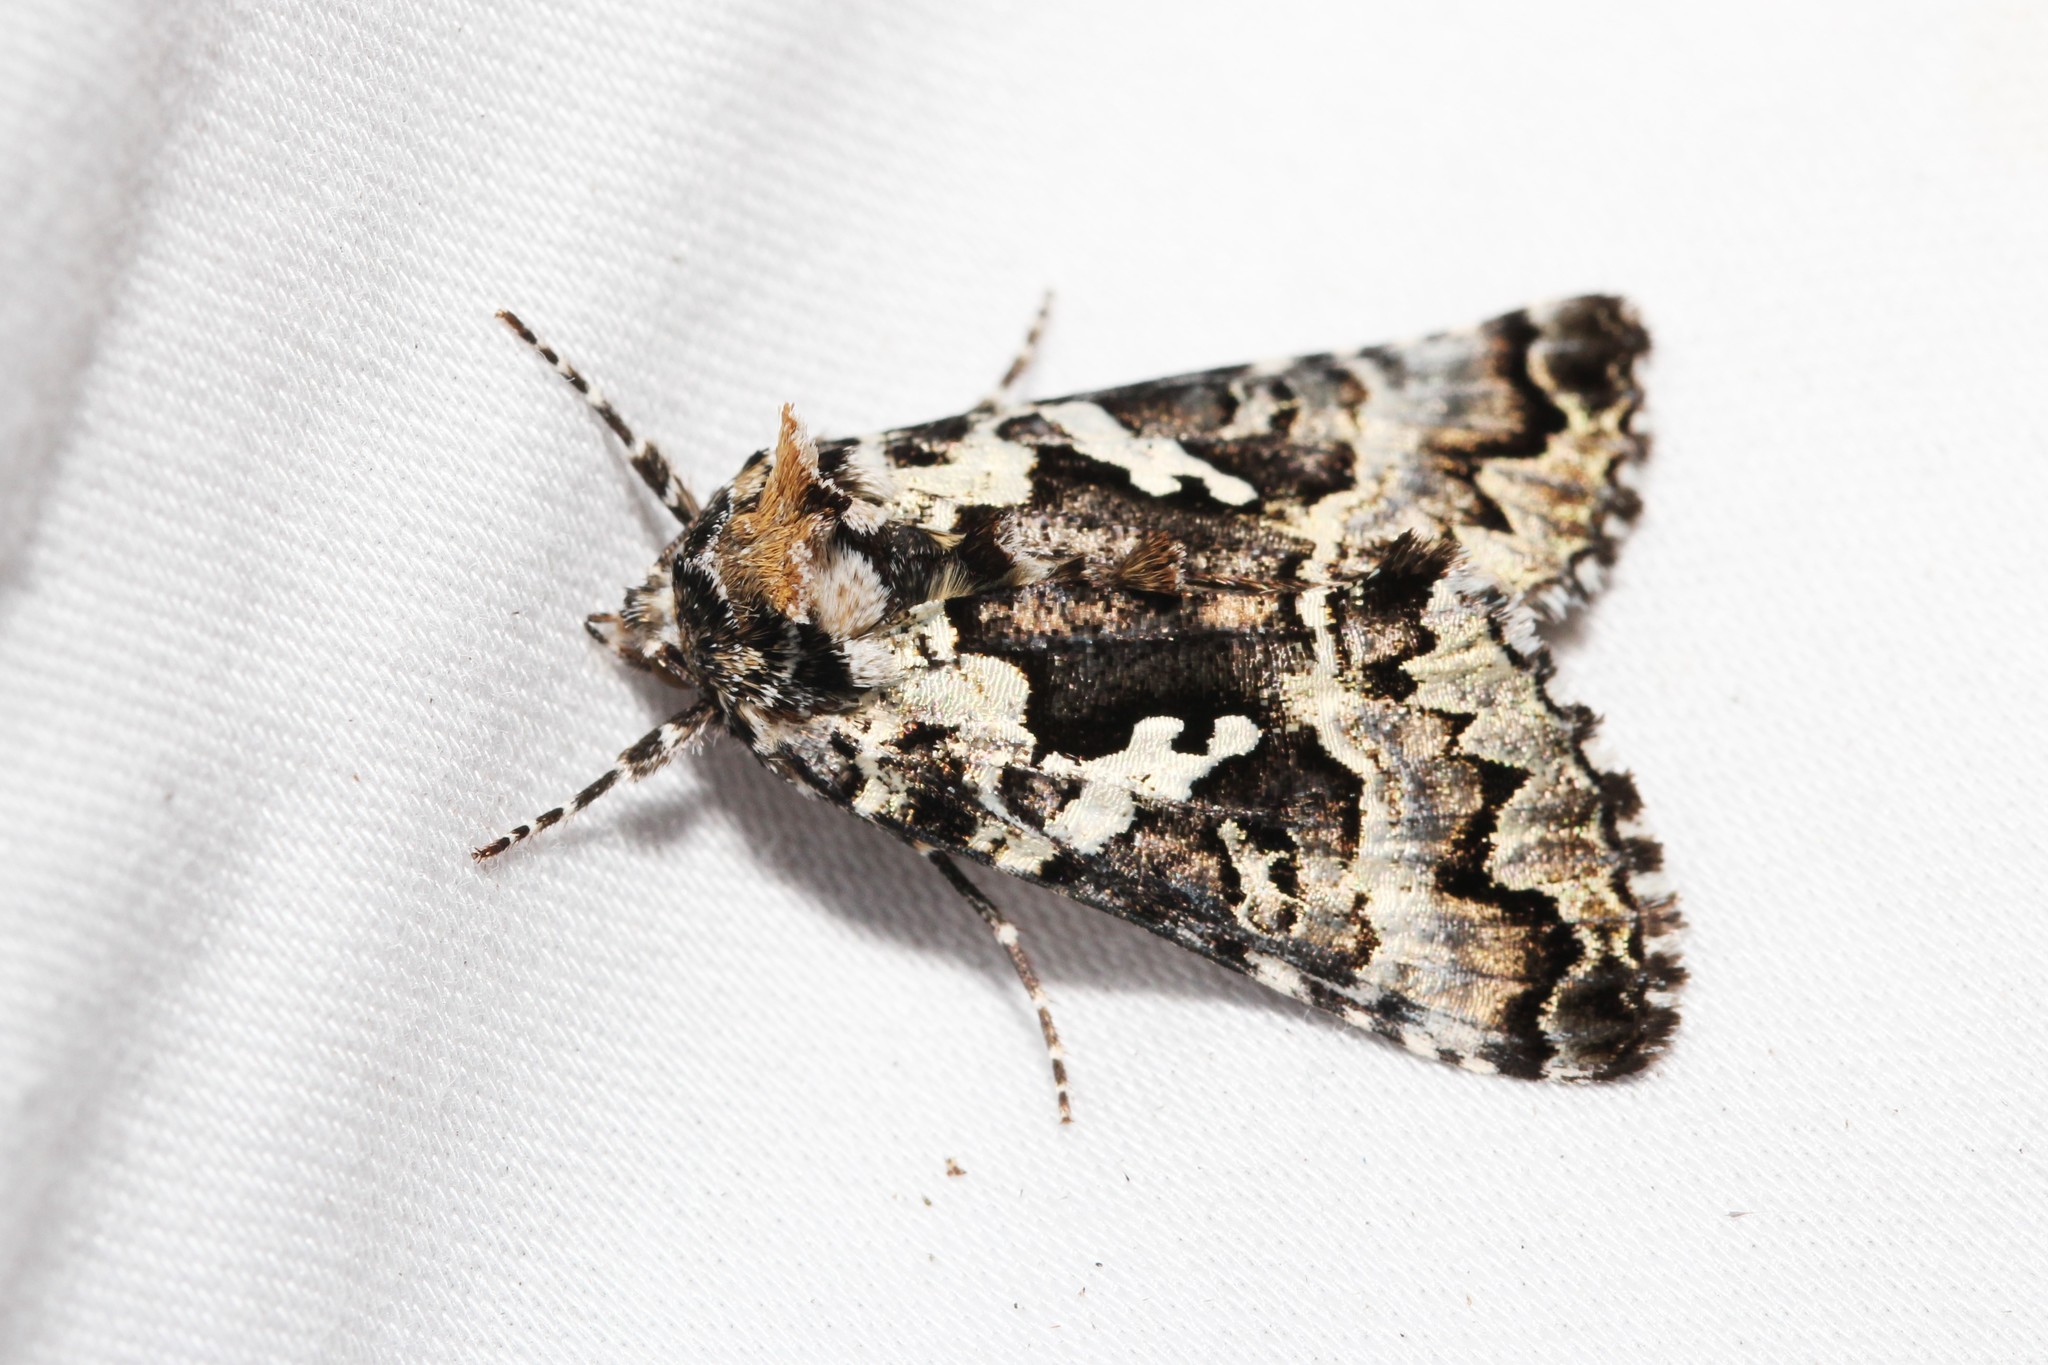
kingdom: Animalia
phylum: Arthropoda
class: Insecta
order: Lepidoptera
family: Noctuidae
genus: Syngrapha
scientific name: Syngrapha rectangula
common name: Angulated cutworm
